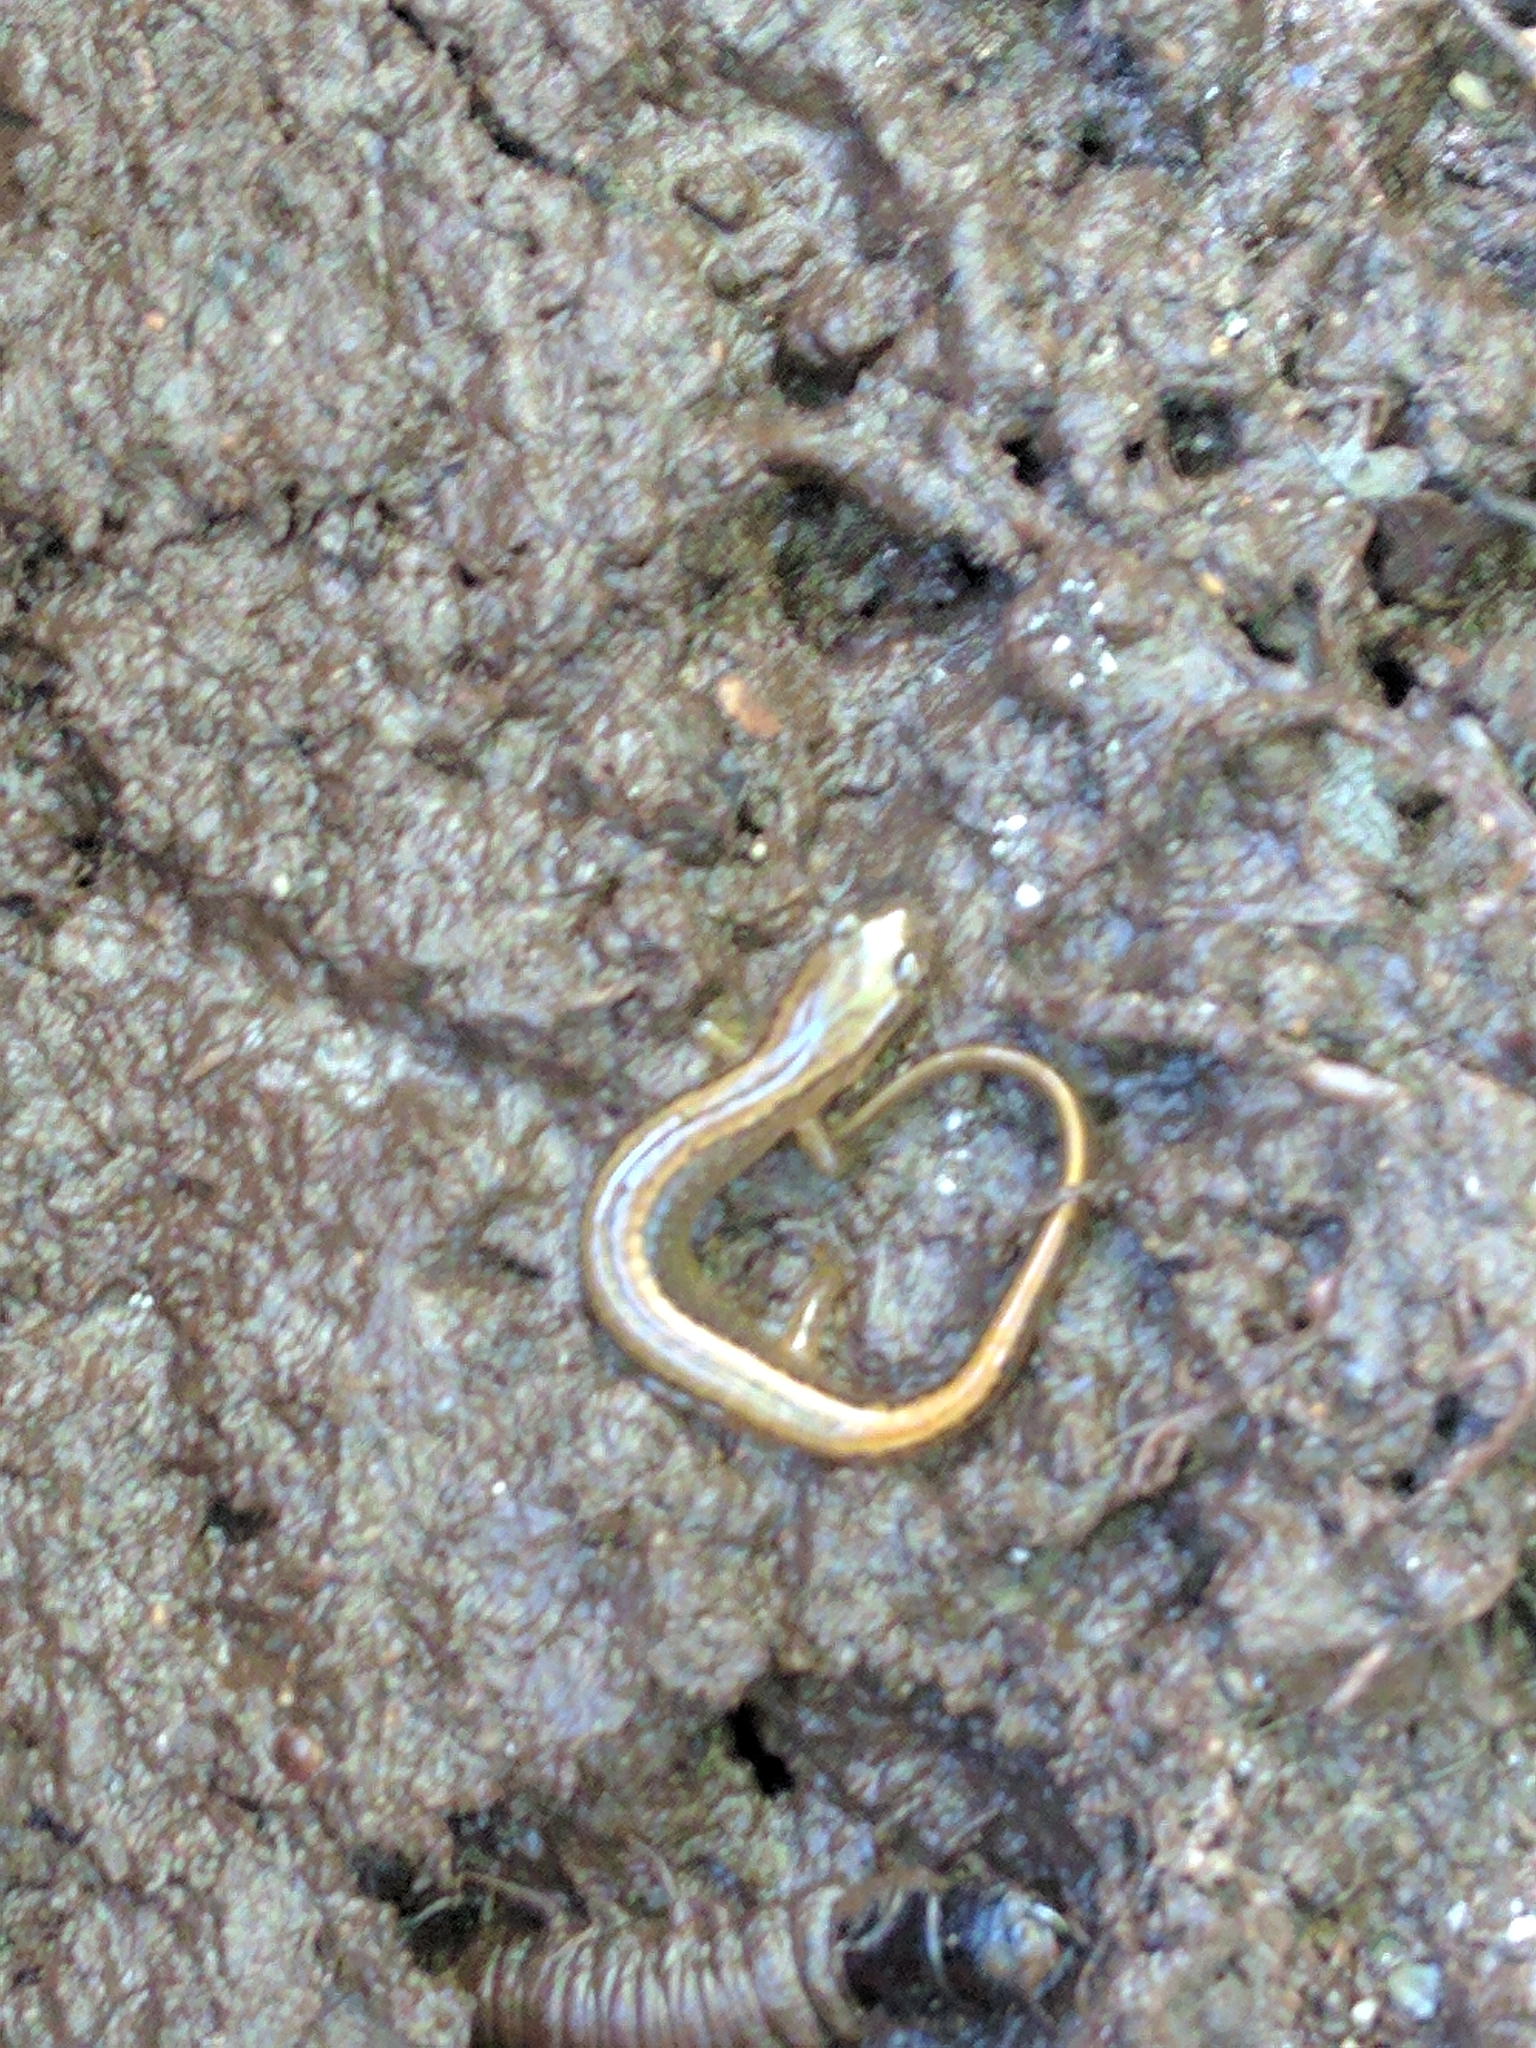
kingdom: Animalia
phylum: Chordata
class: Amphibia
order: Caudata
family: Plethodontidae
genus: Eurycea
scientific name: Eurycea bislineata
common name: Northern two-lined salamander
